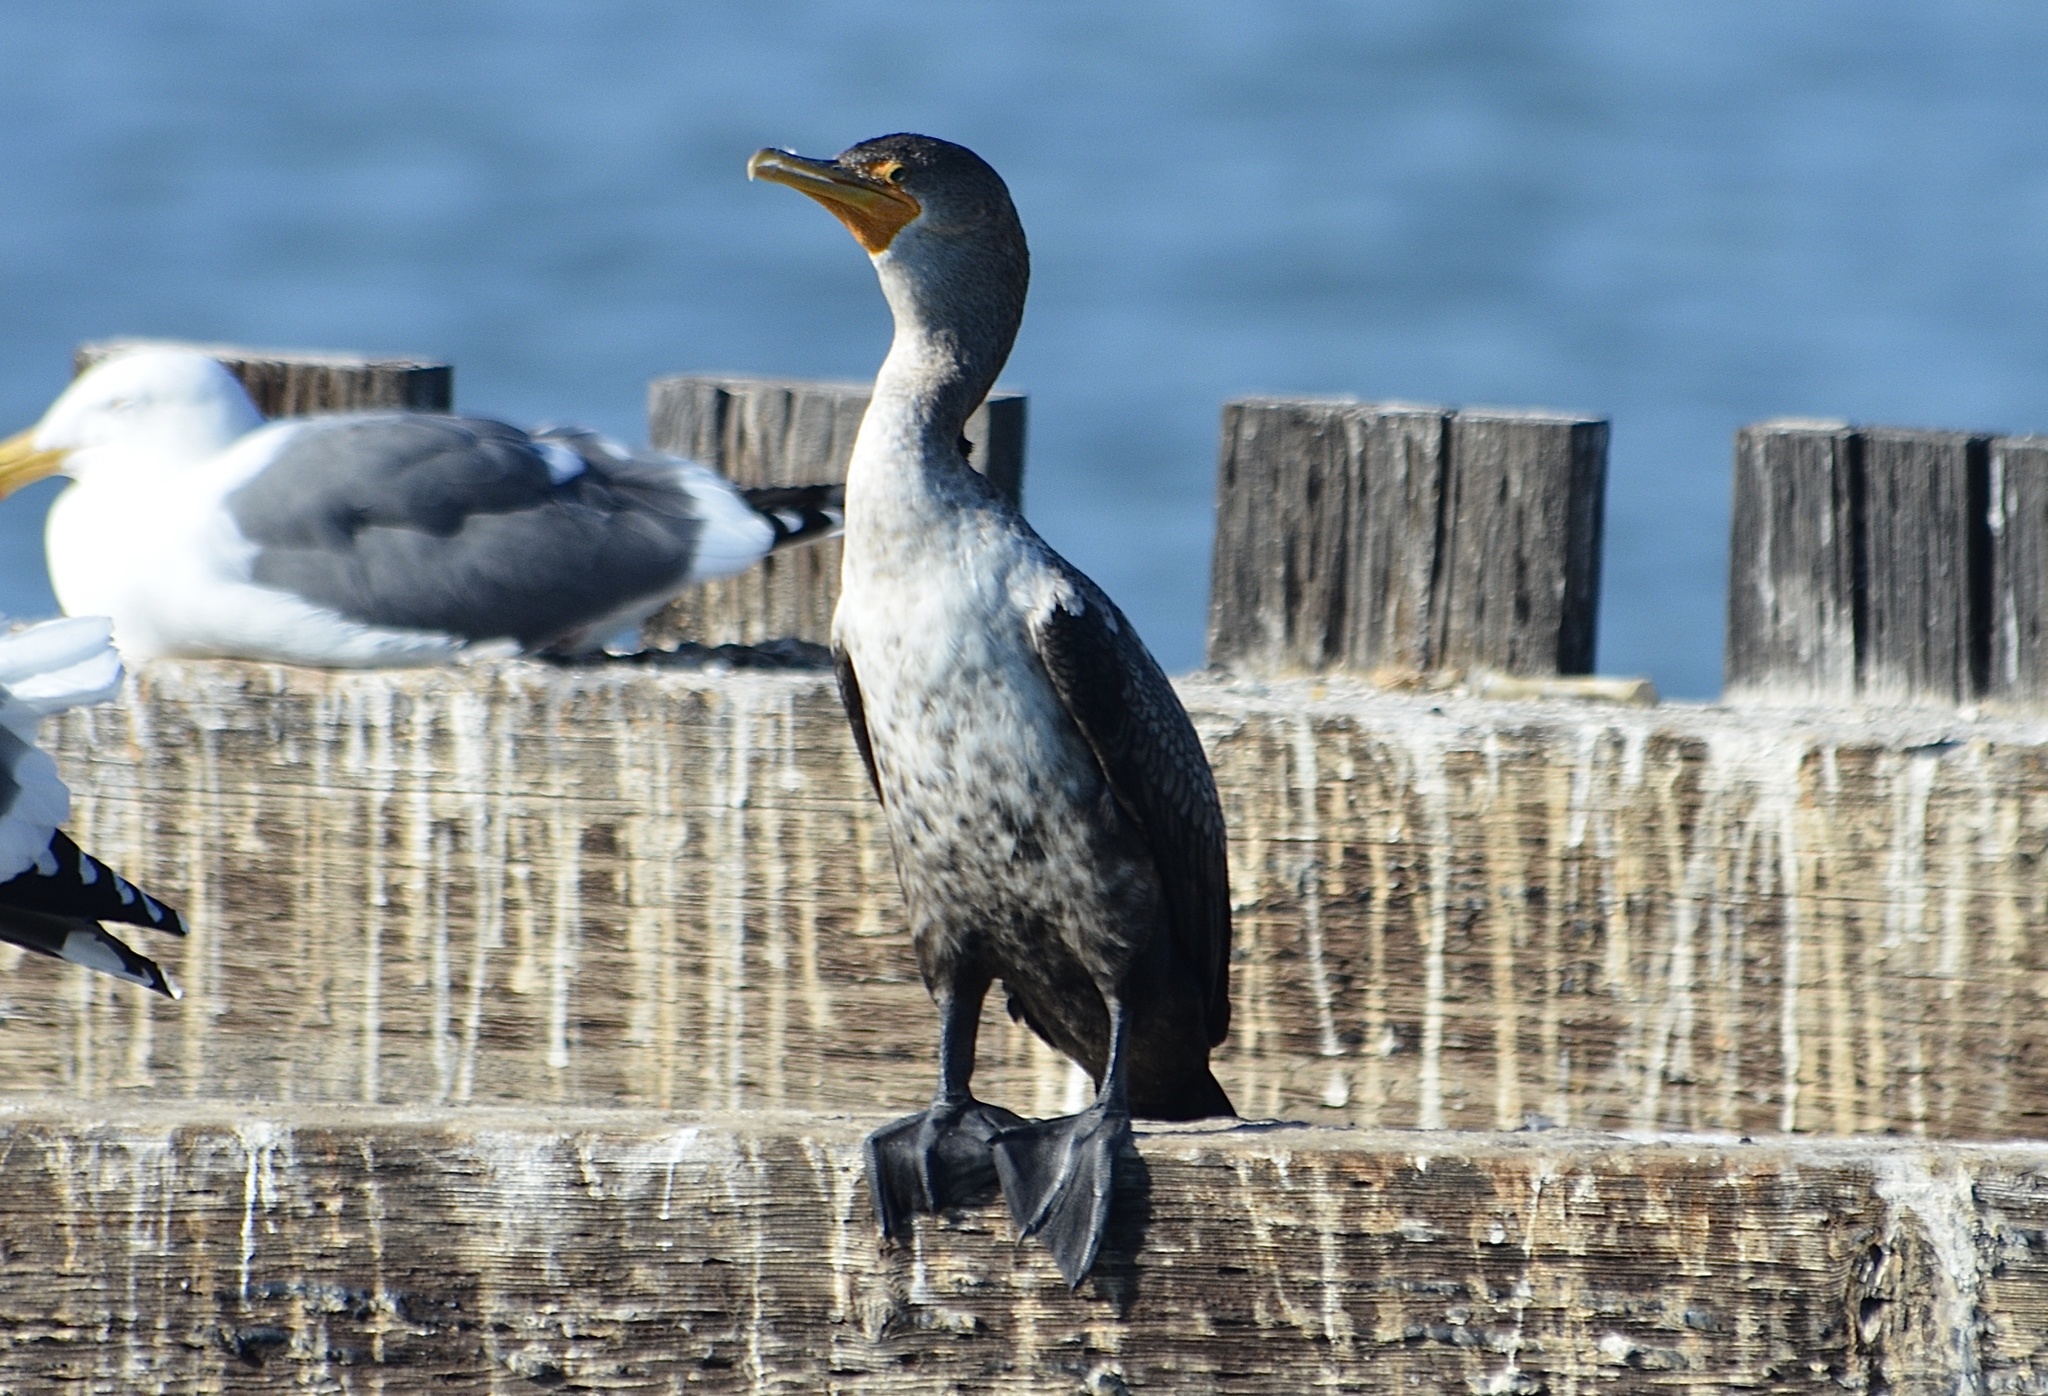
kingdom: Animalia
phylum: Chordata
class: Aves
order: Suliformes
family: Phalacrocoracidae
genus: Phalacrocorax
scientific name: Phalacrocorax auritus
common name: Double-crested cormorant
